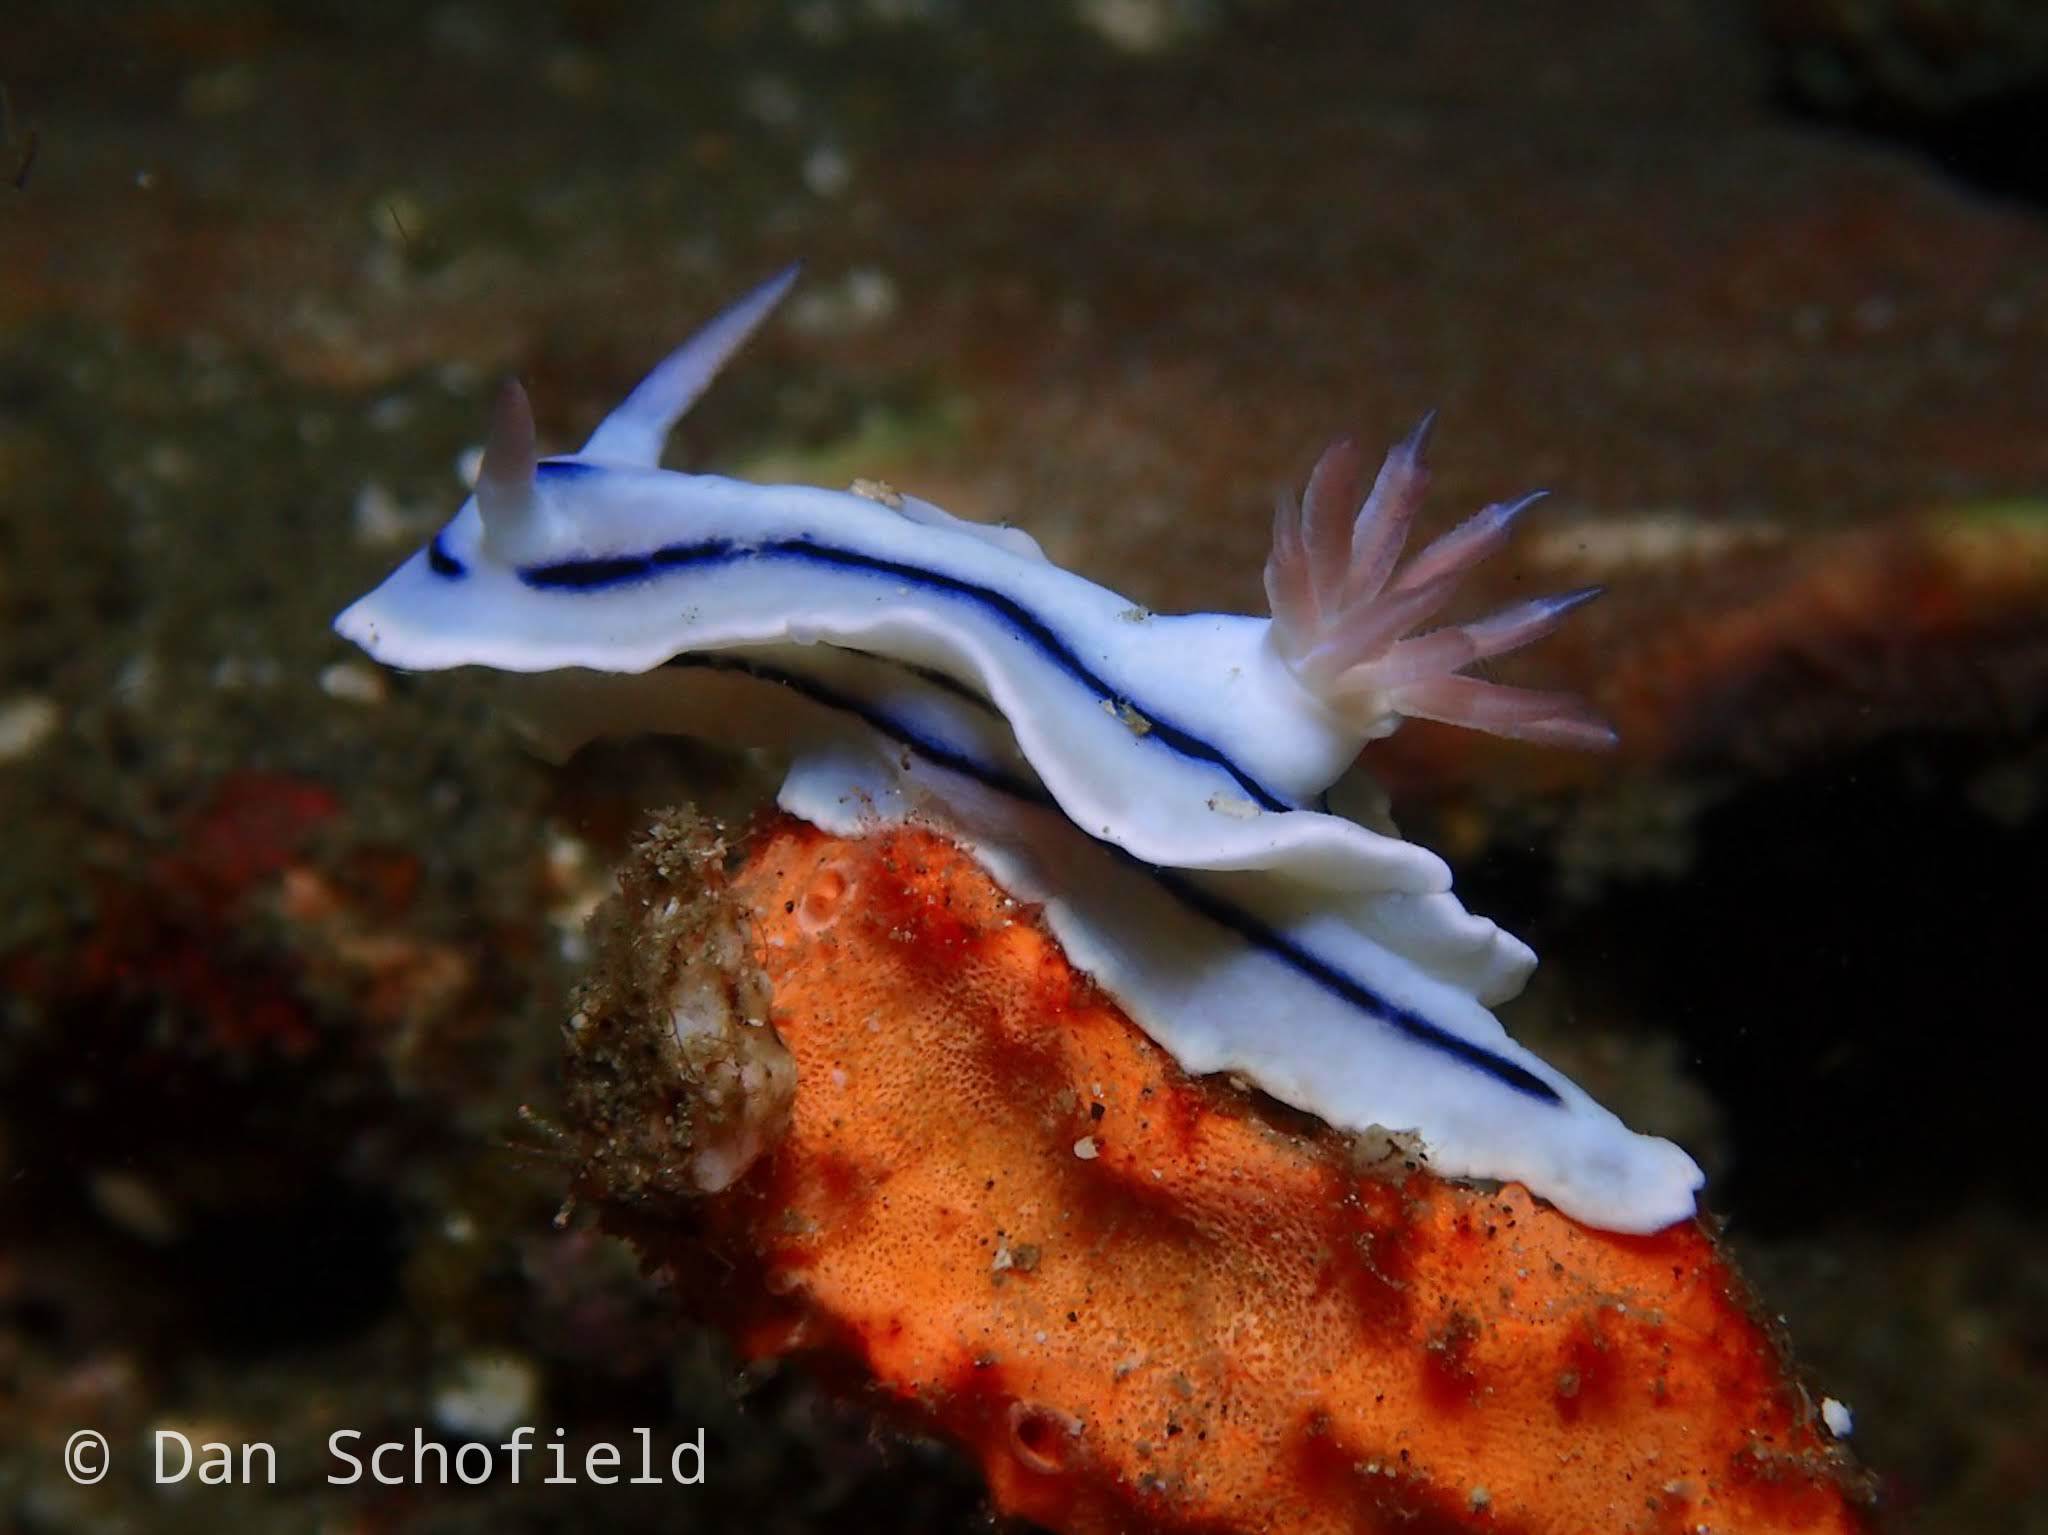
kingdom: Animalia
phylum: Mollusca
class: Gastropoda
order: Nudibranchia
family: Chromodorididae
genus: Chromodoris
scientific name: Chromodoris lochi
